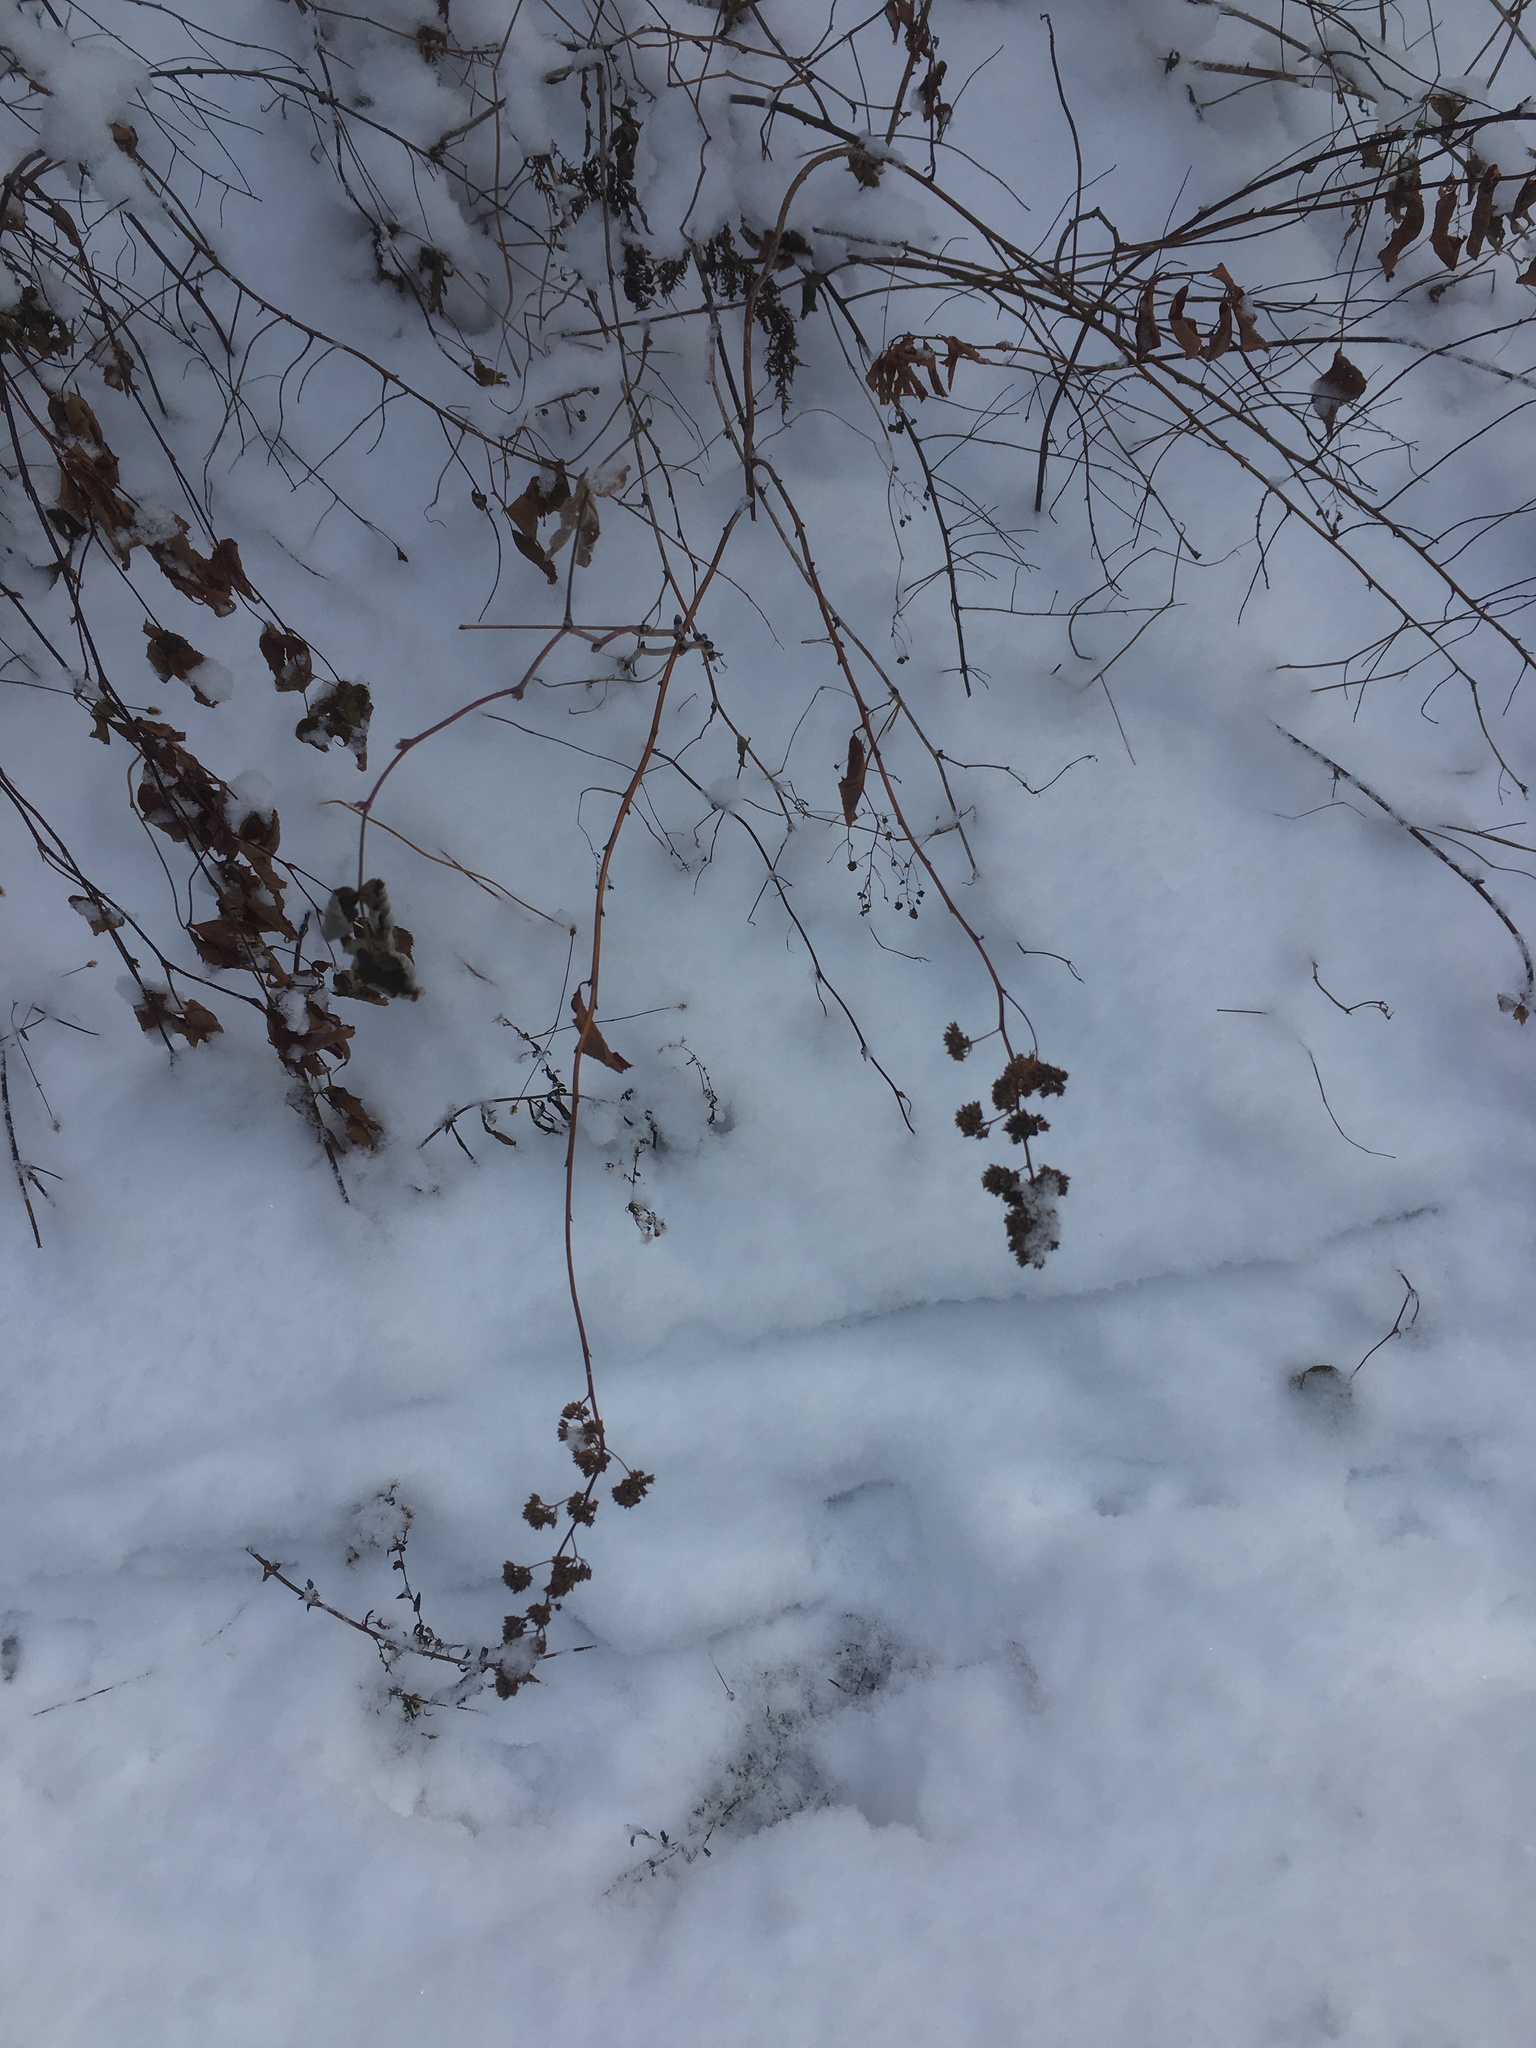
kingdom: Plantae
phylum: Tracheophyta
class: Magnoliopsida
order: Rosales
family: Rosaceae
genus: Spiraea
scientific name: Spiraea alba
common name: Pale bridewort
